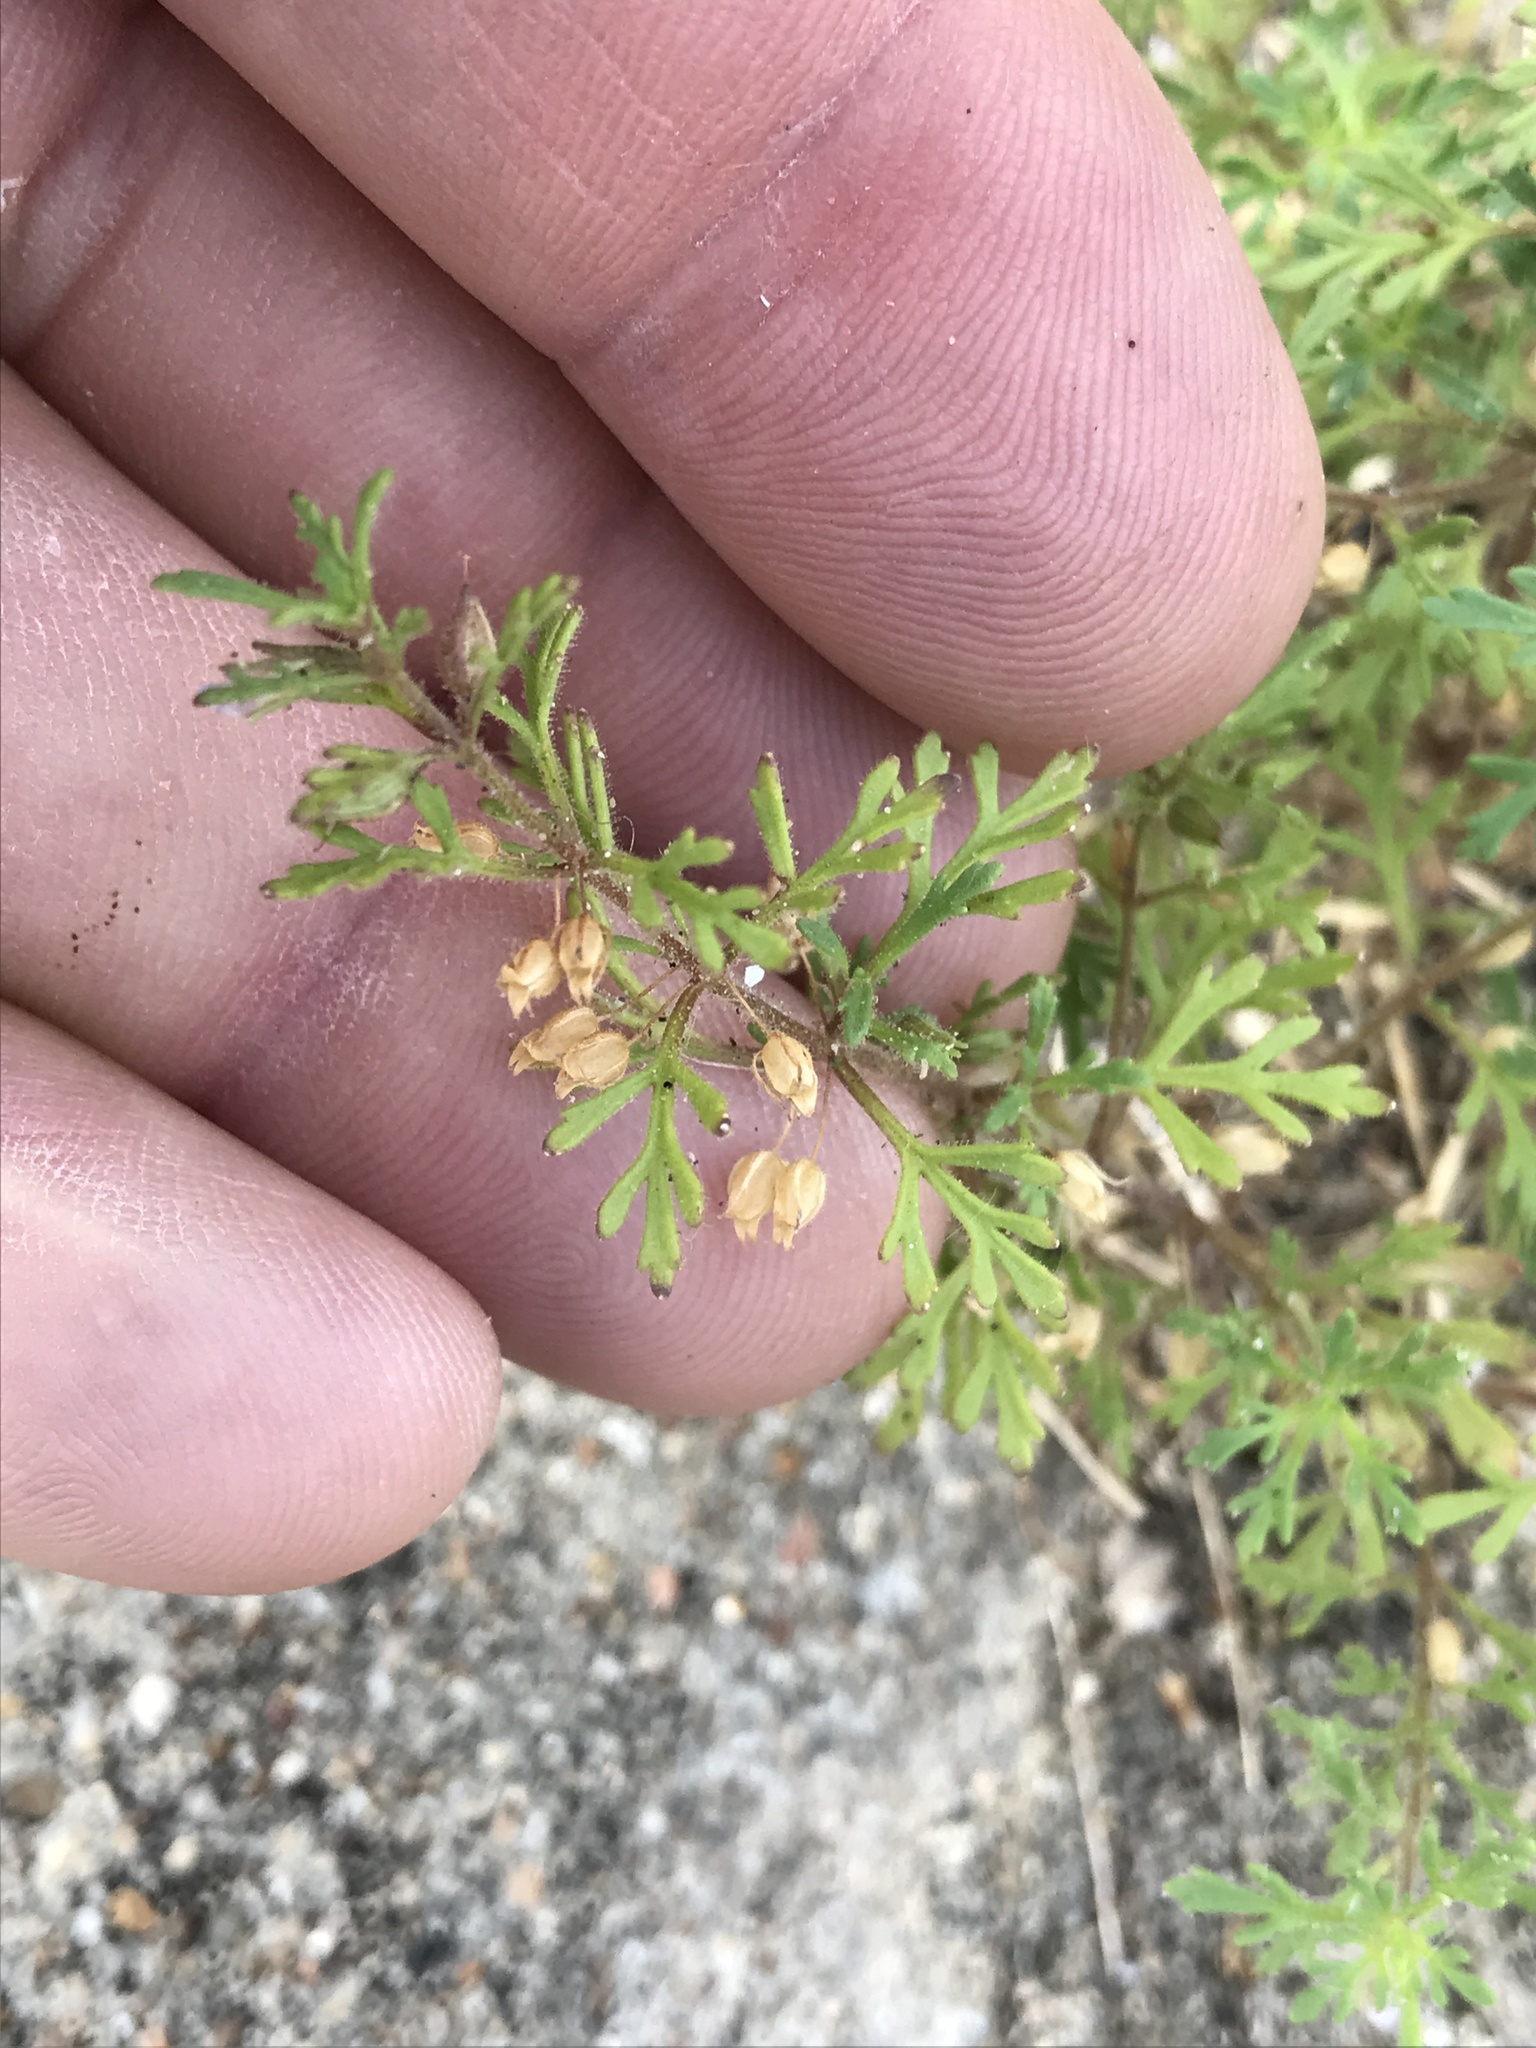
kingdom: Plantae
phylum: Tracheophyta
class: Magnoliopsida
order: Lamiales
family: Plantaginaceae
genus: Leucospora
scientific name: Leucospora multifida
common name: Narrow-leaf paleseed
